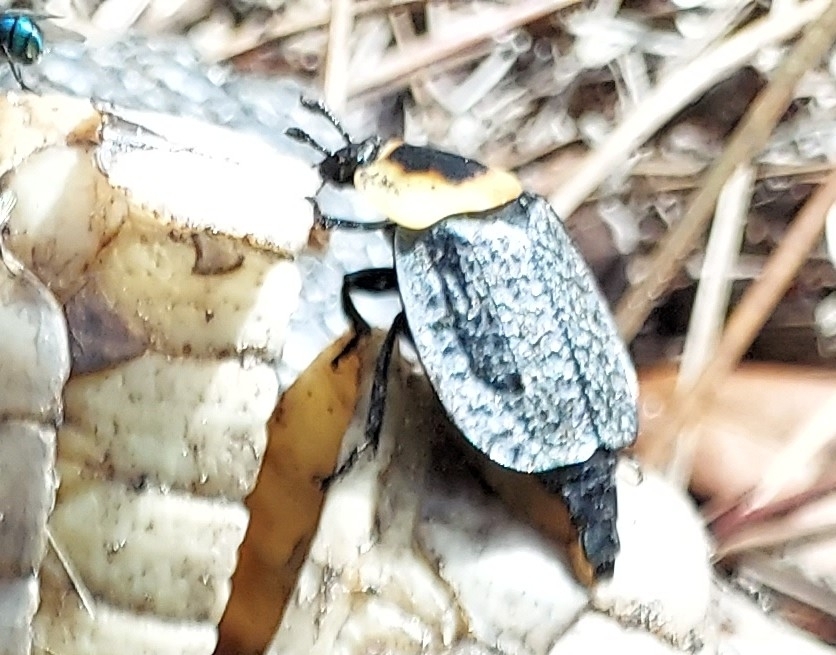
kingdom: Animalia
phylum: Arthropoda
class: Insecta
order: Coleoptera
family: Staphylinidae
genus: Necrophila
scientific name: Necrophila americana
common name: American carrion beetle
